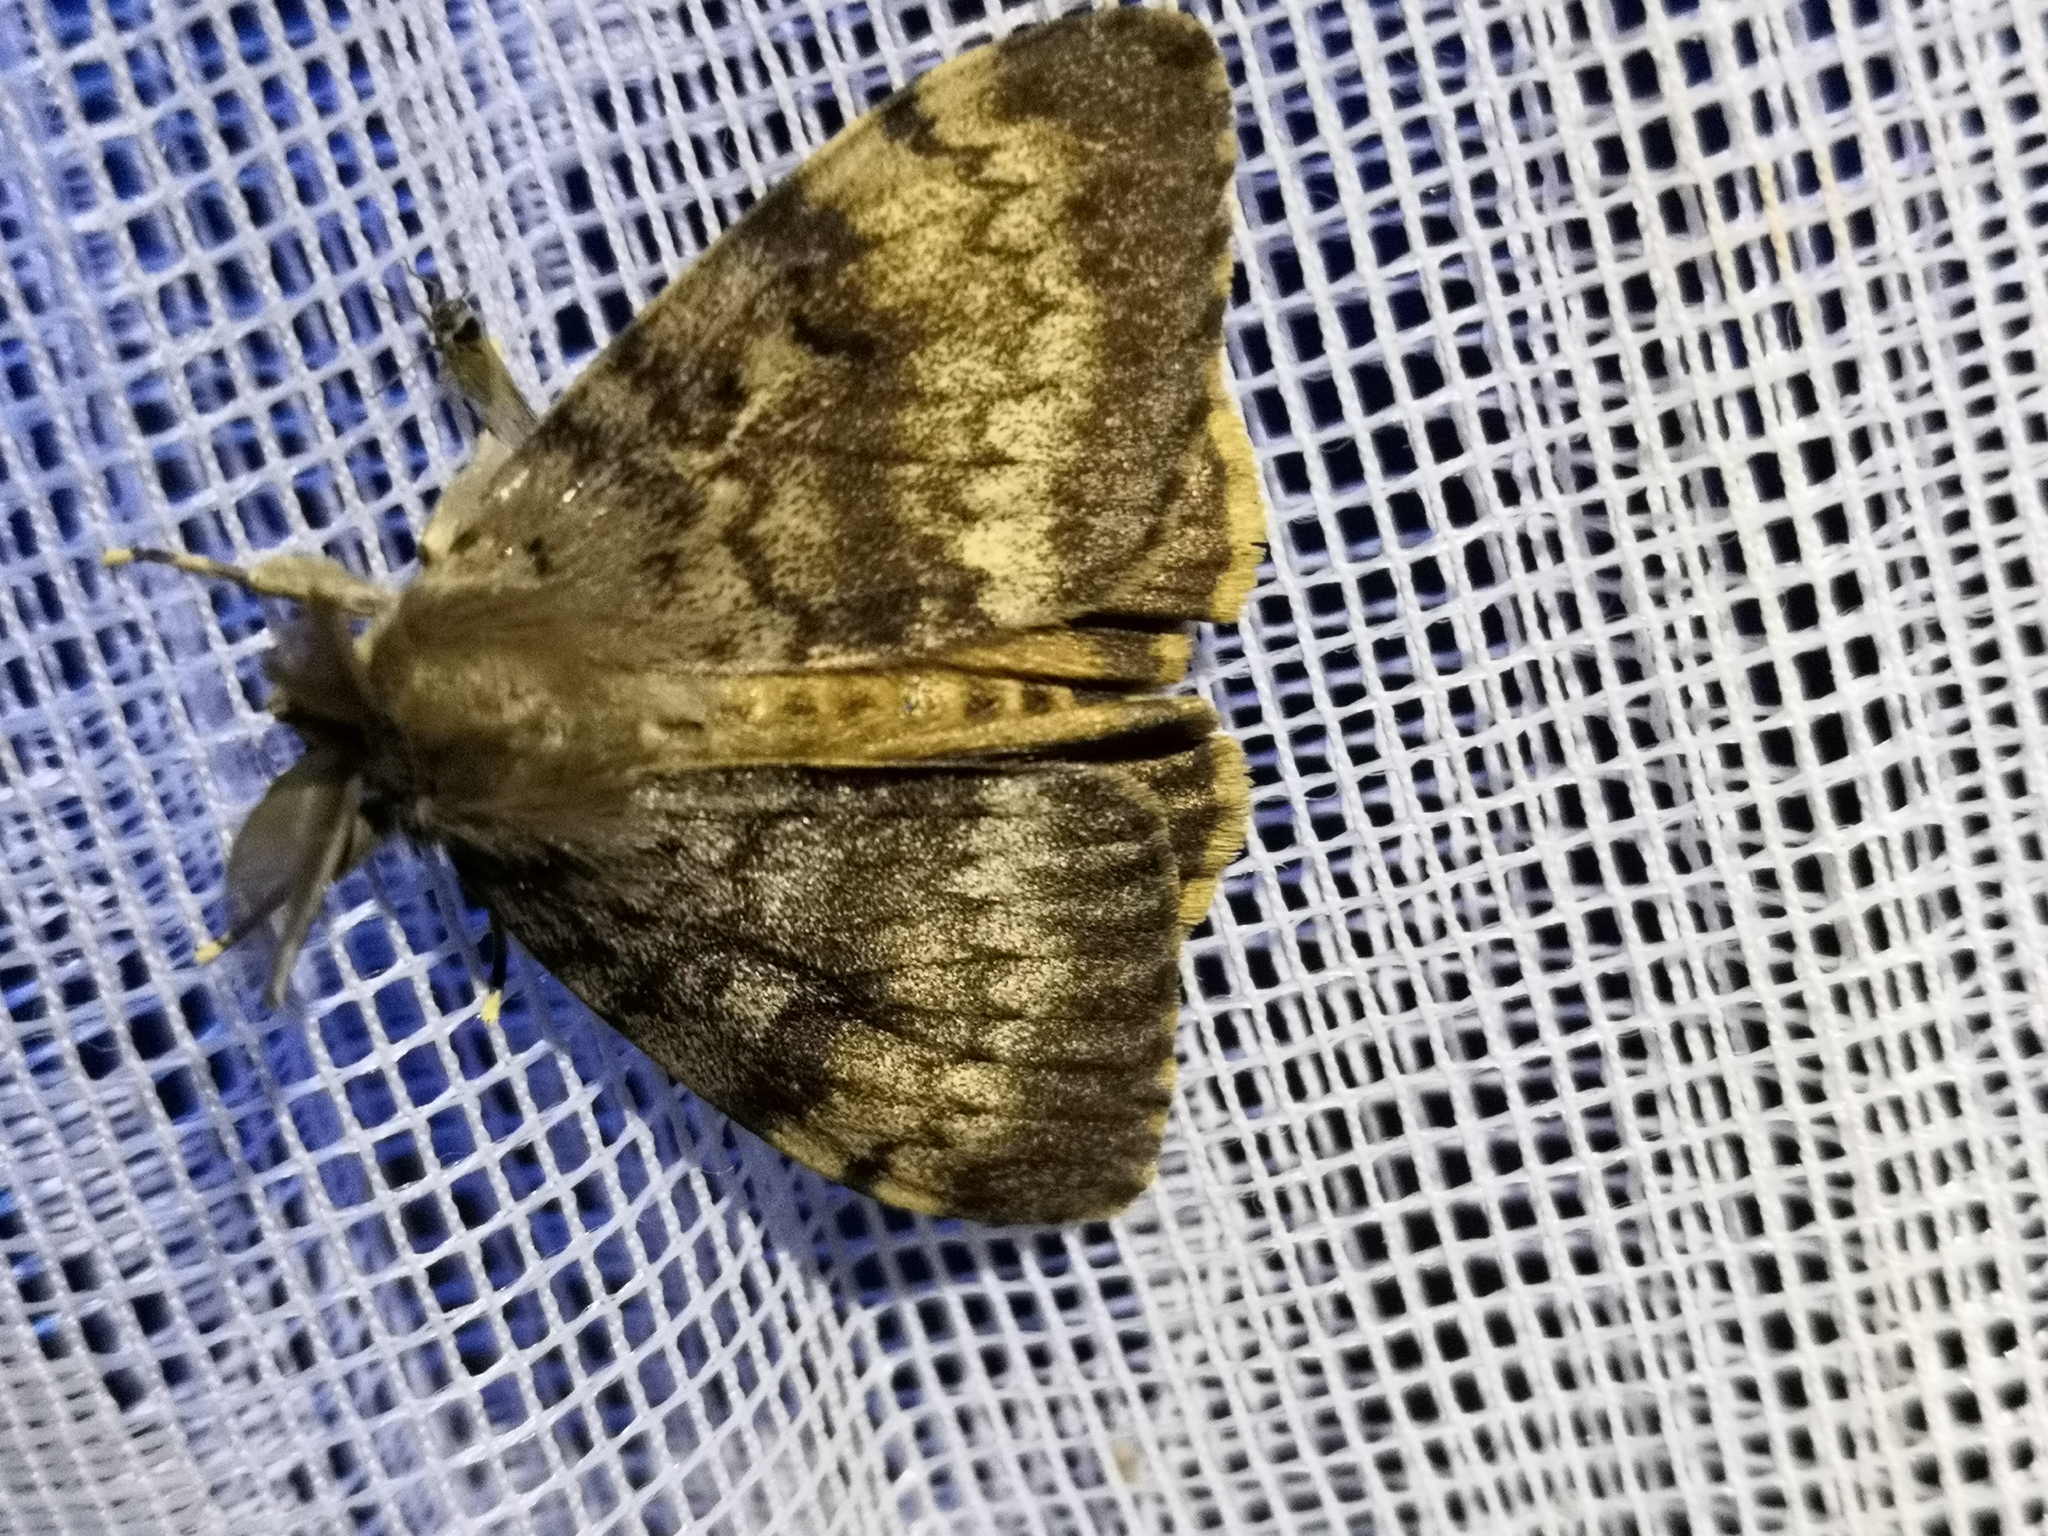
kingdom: Animalia
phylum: Arthropoda
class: Insecta
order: Lepidoptera
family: Erebidae
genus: Lymantria
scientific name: Lymantria dispar
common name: Gypsy moth
